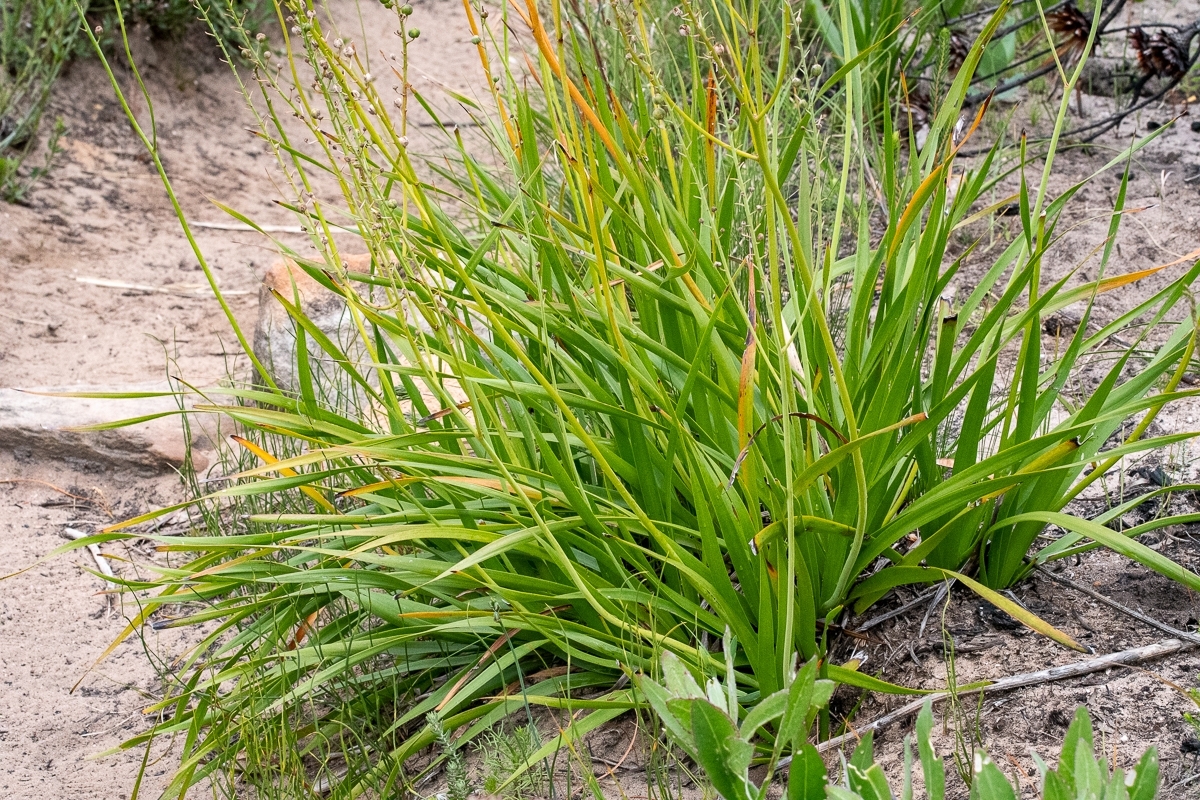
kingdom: Plantae
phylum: Tracheophyta
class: Liliopsida
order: Asparagales
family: Asphodelaceae
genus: Trachyandra
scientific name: Trachyandra hirsuta
